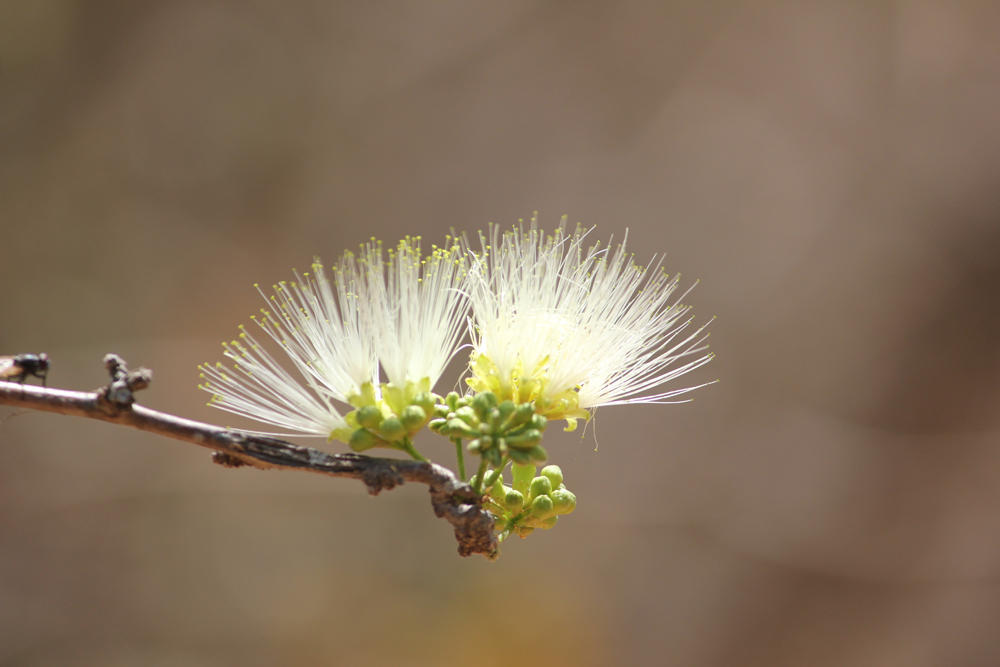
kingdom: Plantae
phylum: Tracheophyta
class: Magnoliopsida
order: Fabales
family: Fabaceae
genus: Albizia
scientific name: Albizia anthelmintica
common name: Worm-bark false-thorn
